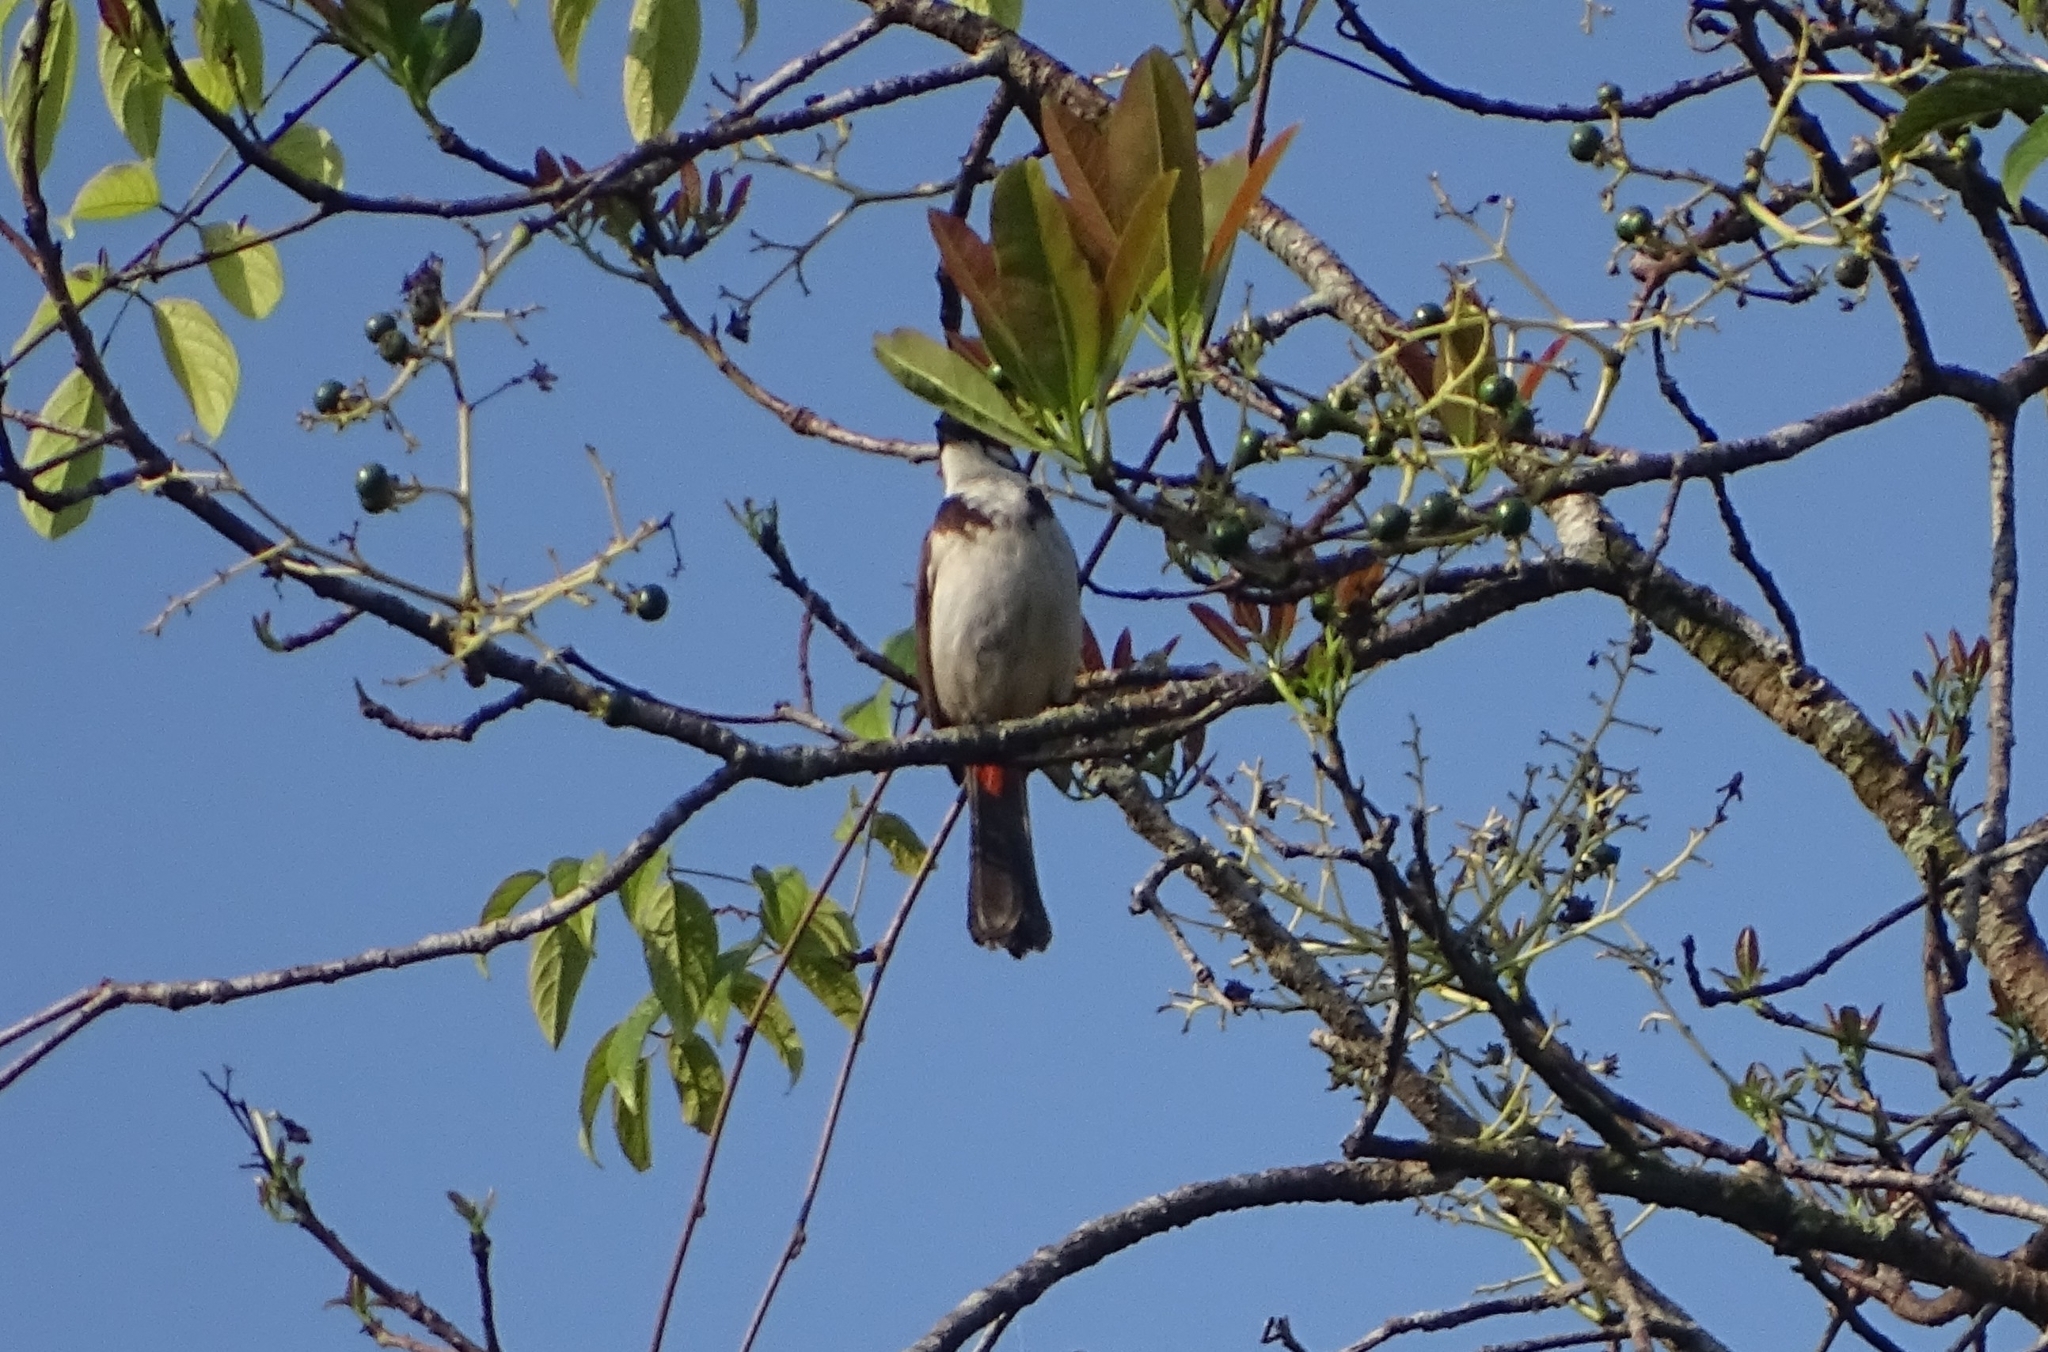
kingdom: Animalia
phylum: Chordata
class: Aves
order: Passeriformes
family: Pycnonotidae
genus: Pycnonotus
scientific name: Pycnonotus jocosus
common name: Red-whiskered bulbul
